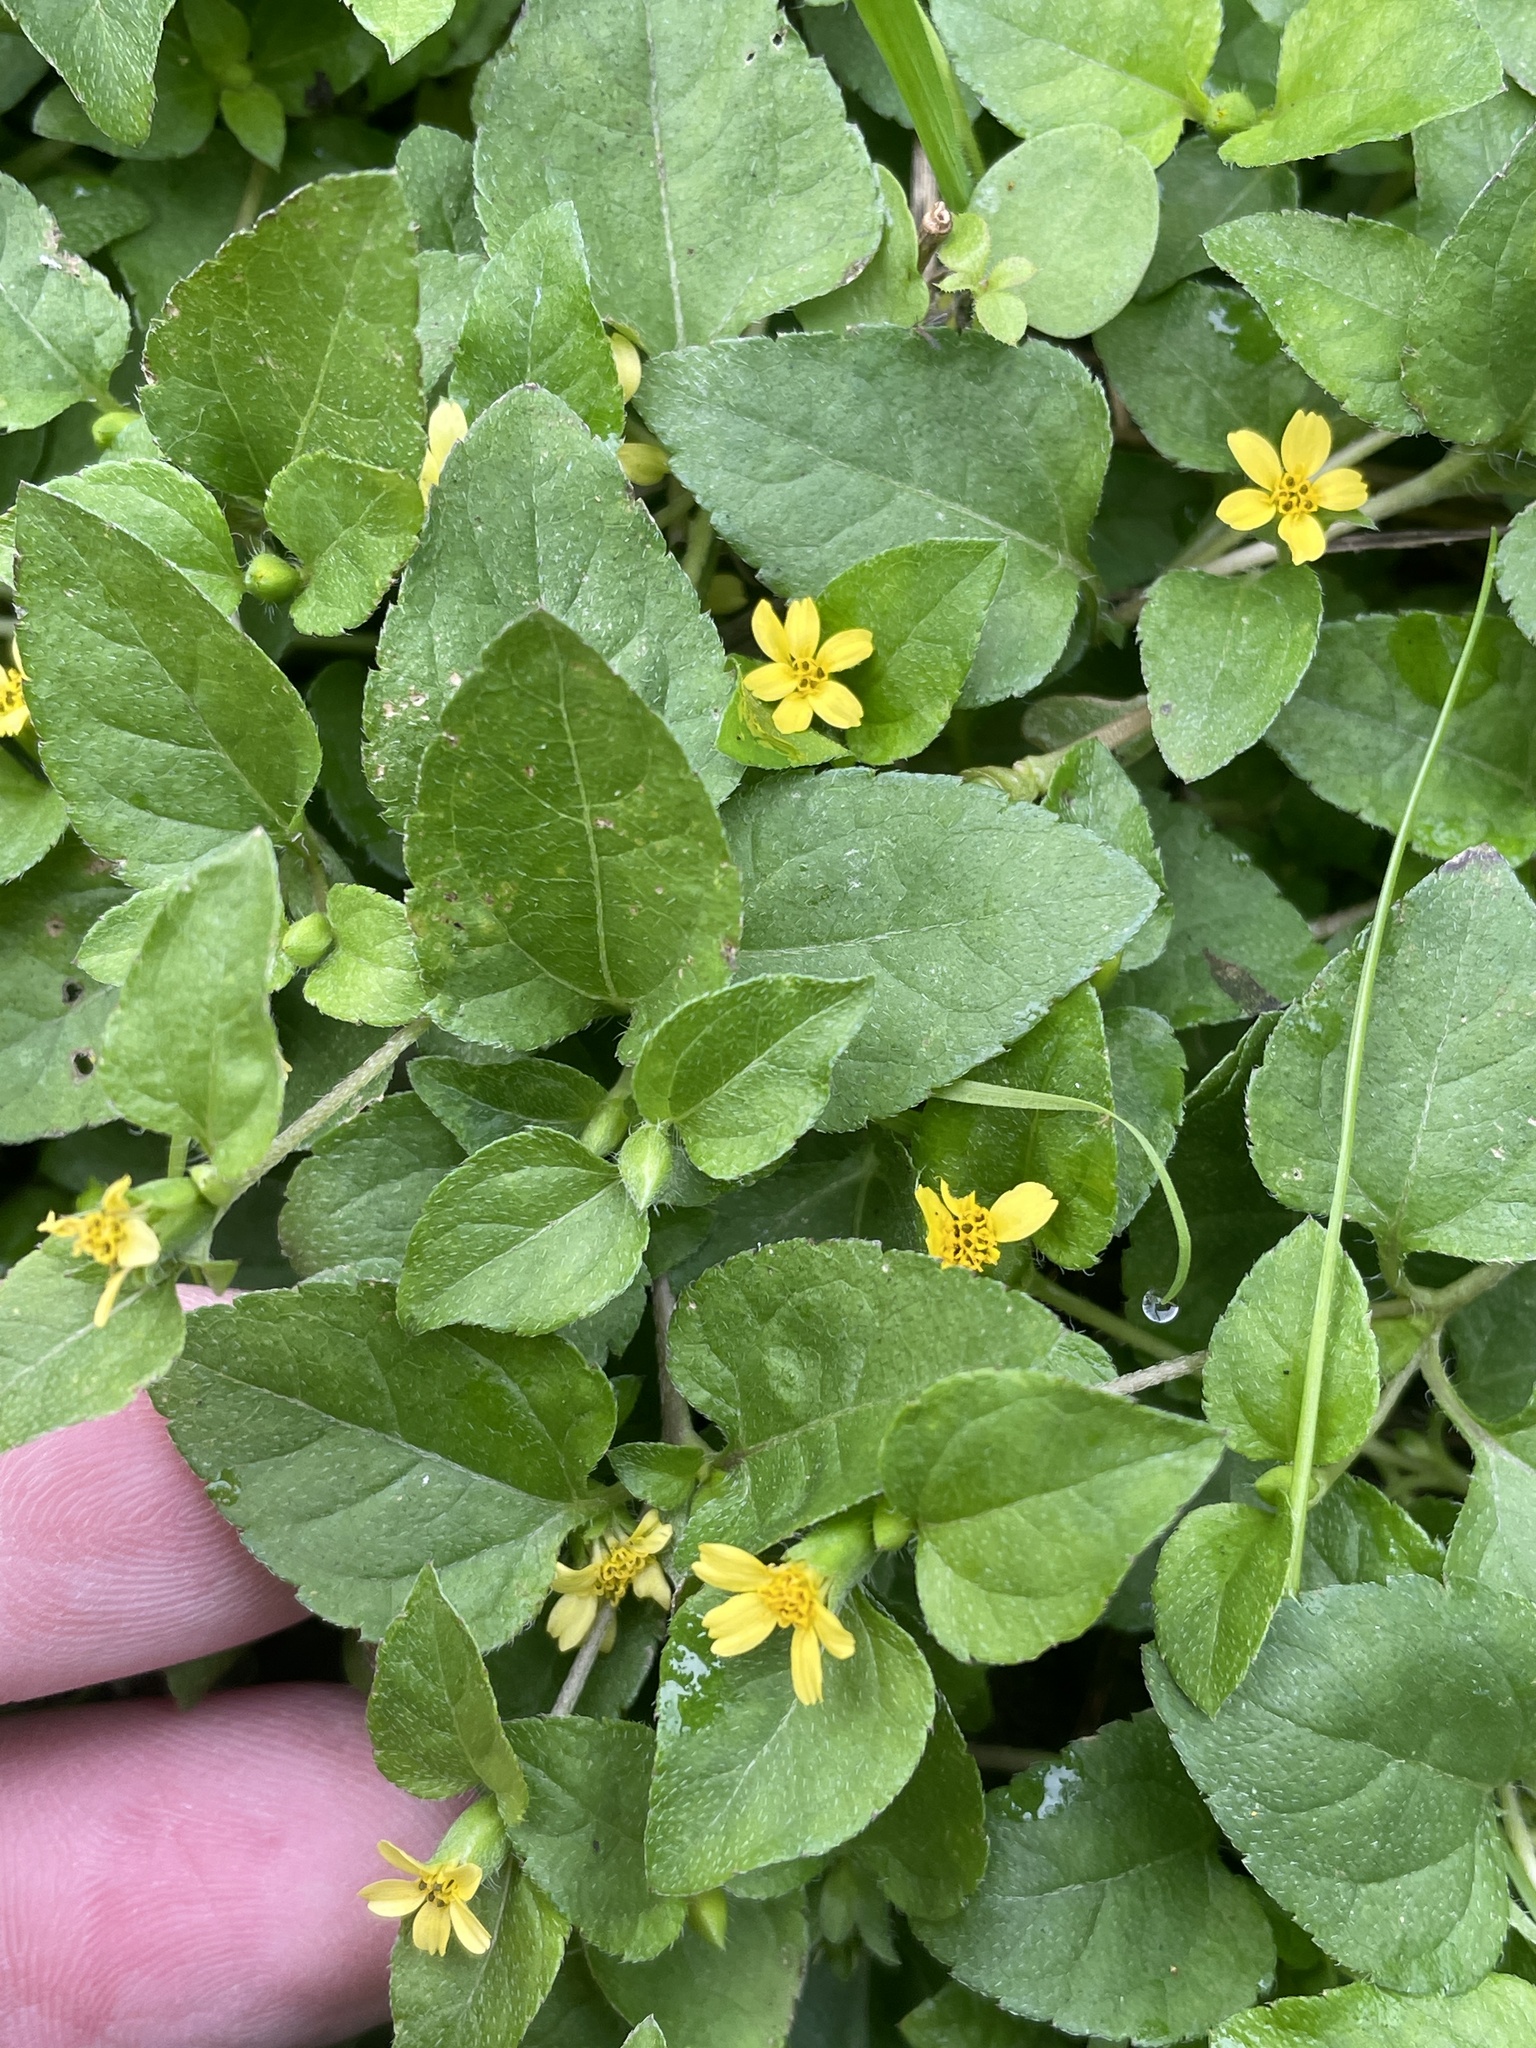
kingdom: Plantae
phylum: Tracheophyta
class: Magnoliopsida
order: Asterales
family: Asteraceae
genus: Calyptocarpus
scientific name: Calyptocarpus vialis
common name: Straggler daisy
